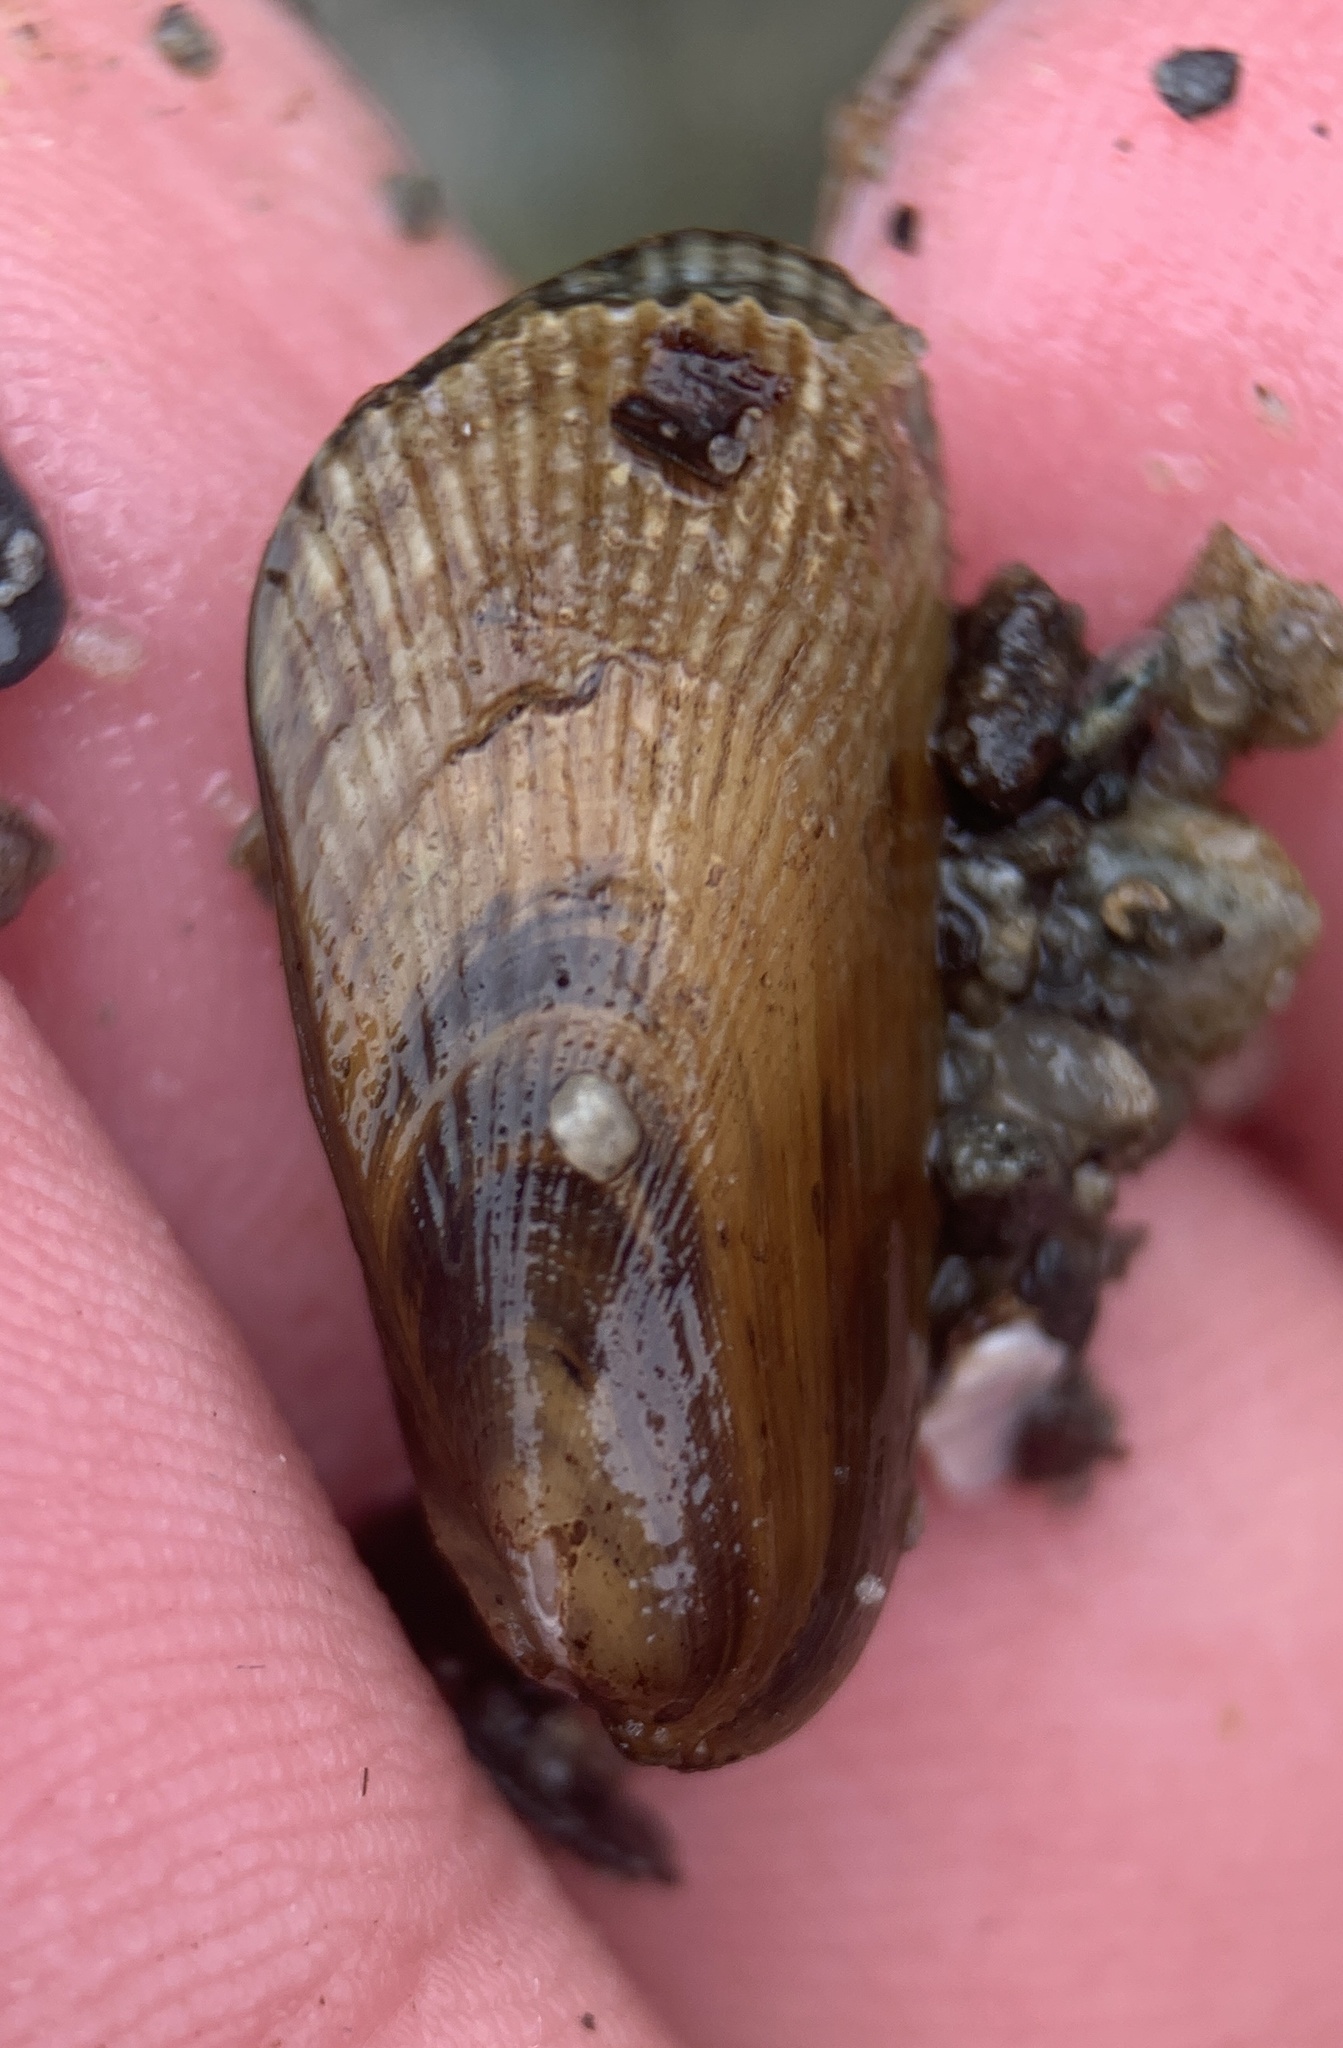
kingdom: Animalia
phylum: Mollusca
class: Bivalvia
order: Mytilida
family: Mytilidae
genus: Geukensia
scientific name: Geukensia demissa
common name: Ribbed mussel
